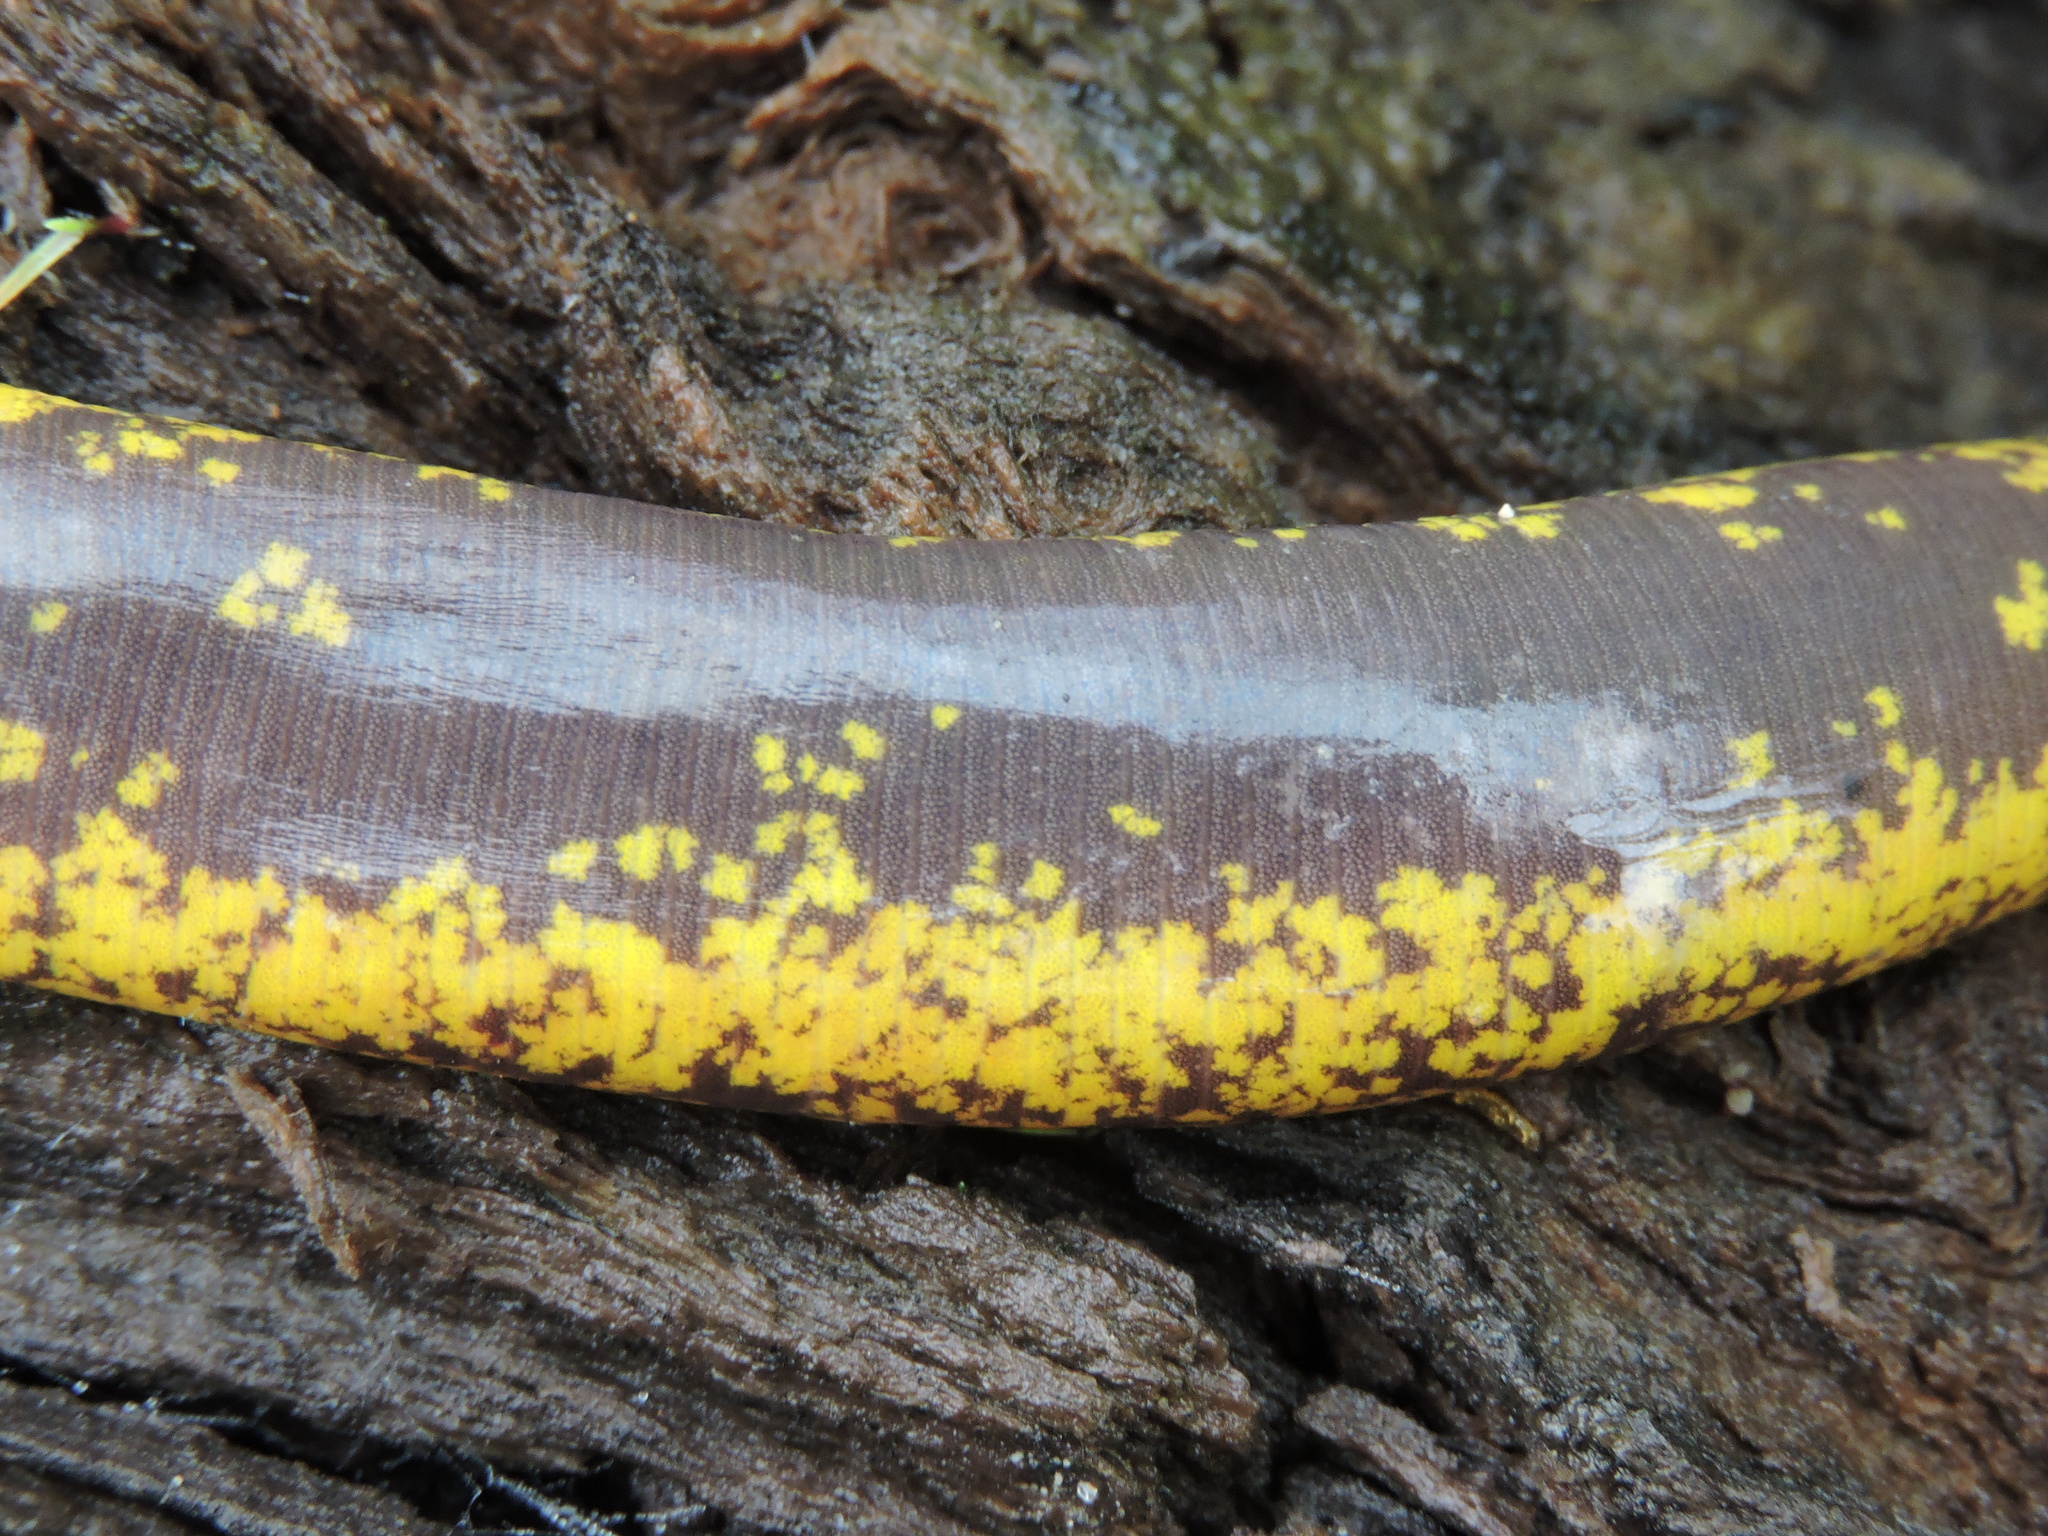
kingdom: Animalia
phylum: Chordata
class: Amphibia
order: Gymnophiona
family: Rhinatrematidae
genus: Epicrionops
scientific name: Epicrionops bicolor
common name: Two-colored caecilian
